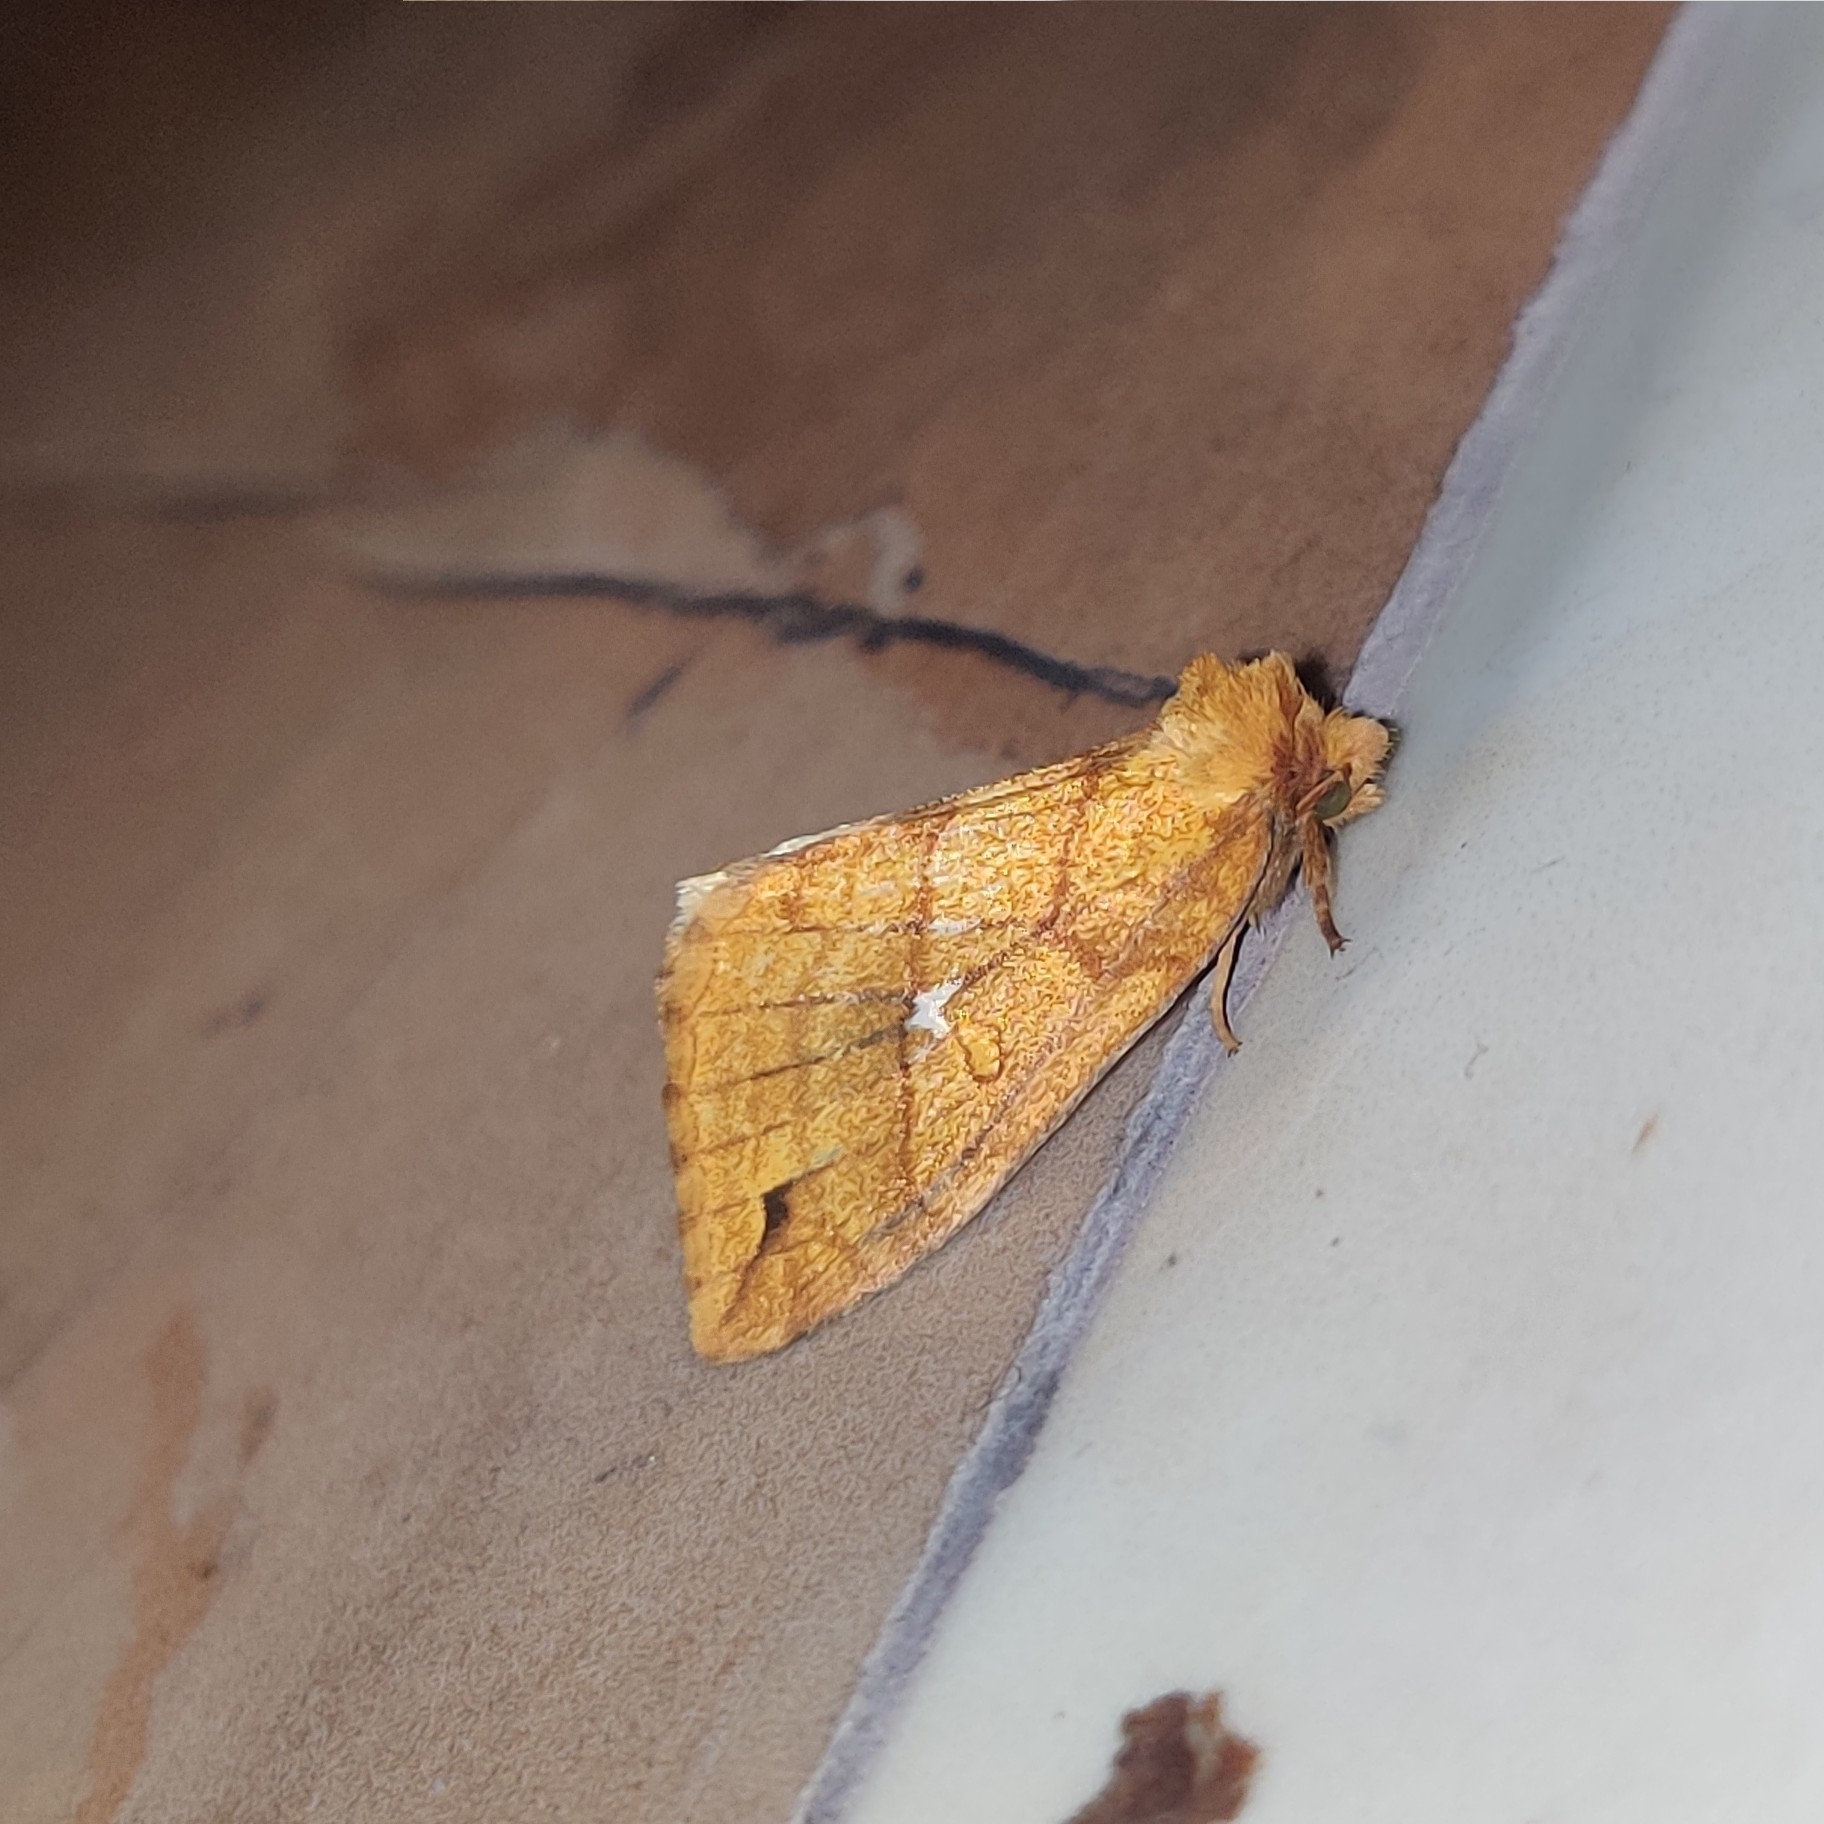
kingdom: Animalia
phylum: Arthropoda
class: Insecta
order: Lepidoptera
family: Noctuidae
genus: Xanthia
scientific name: Xanthia rectilineata
